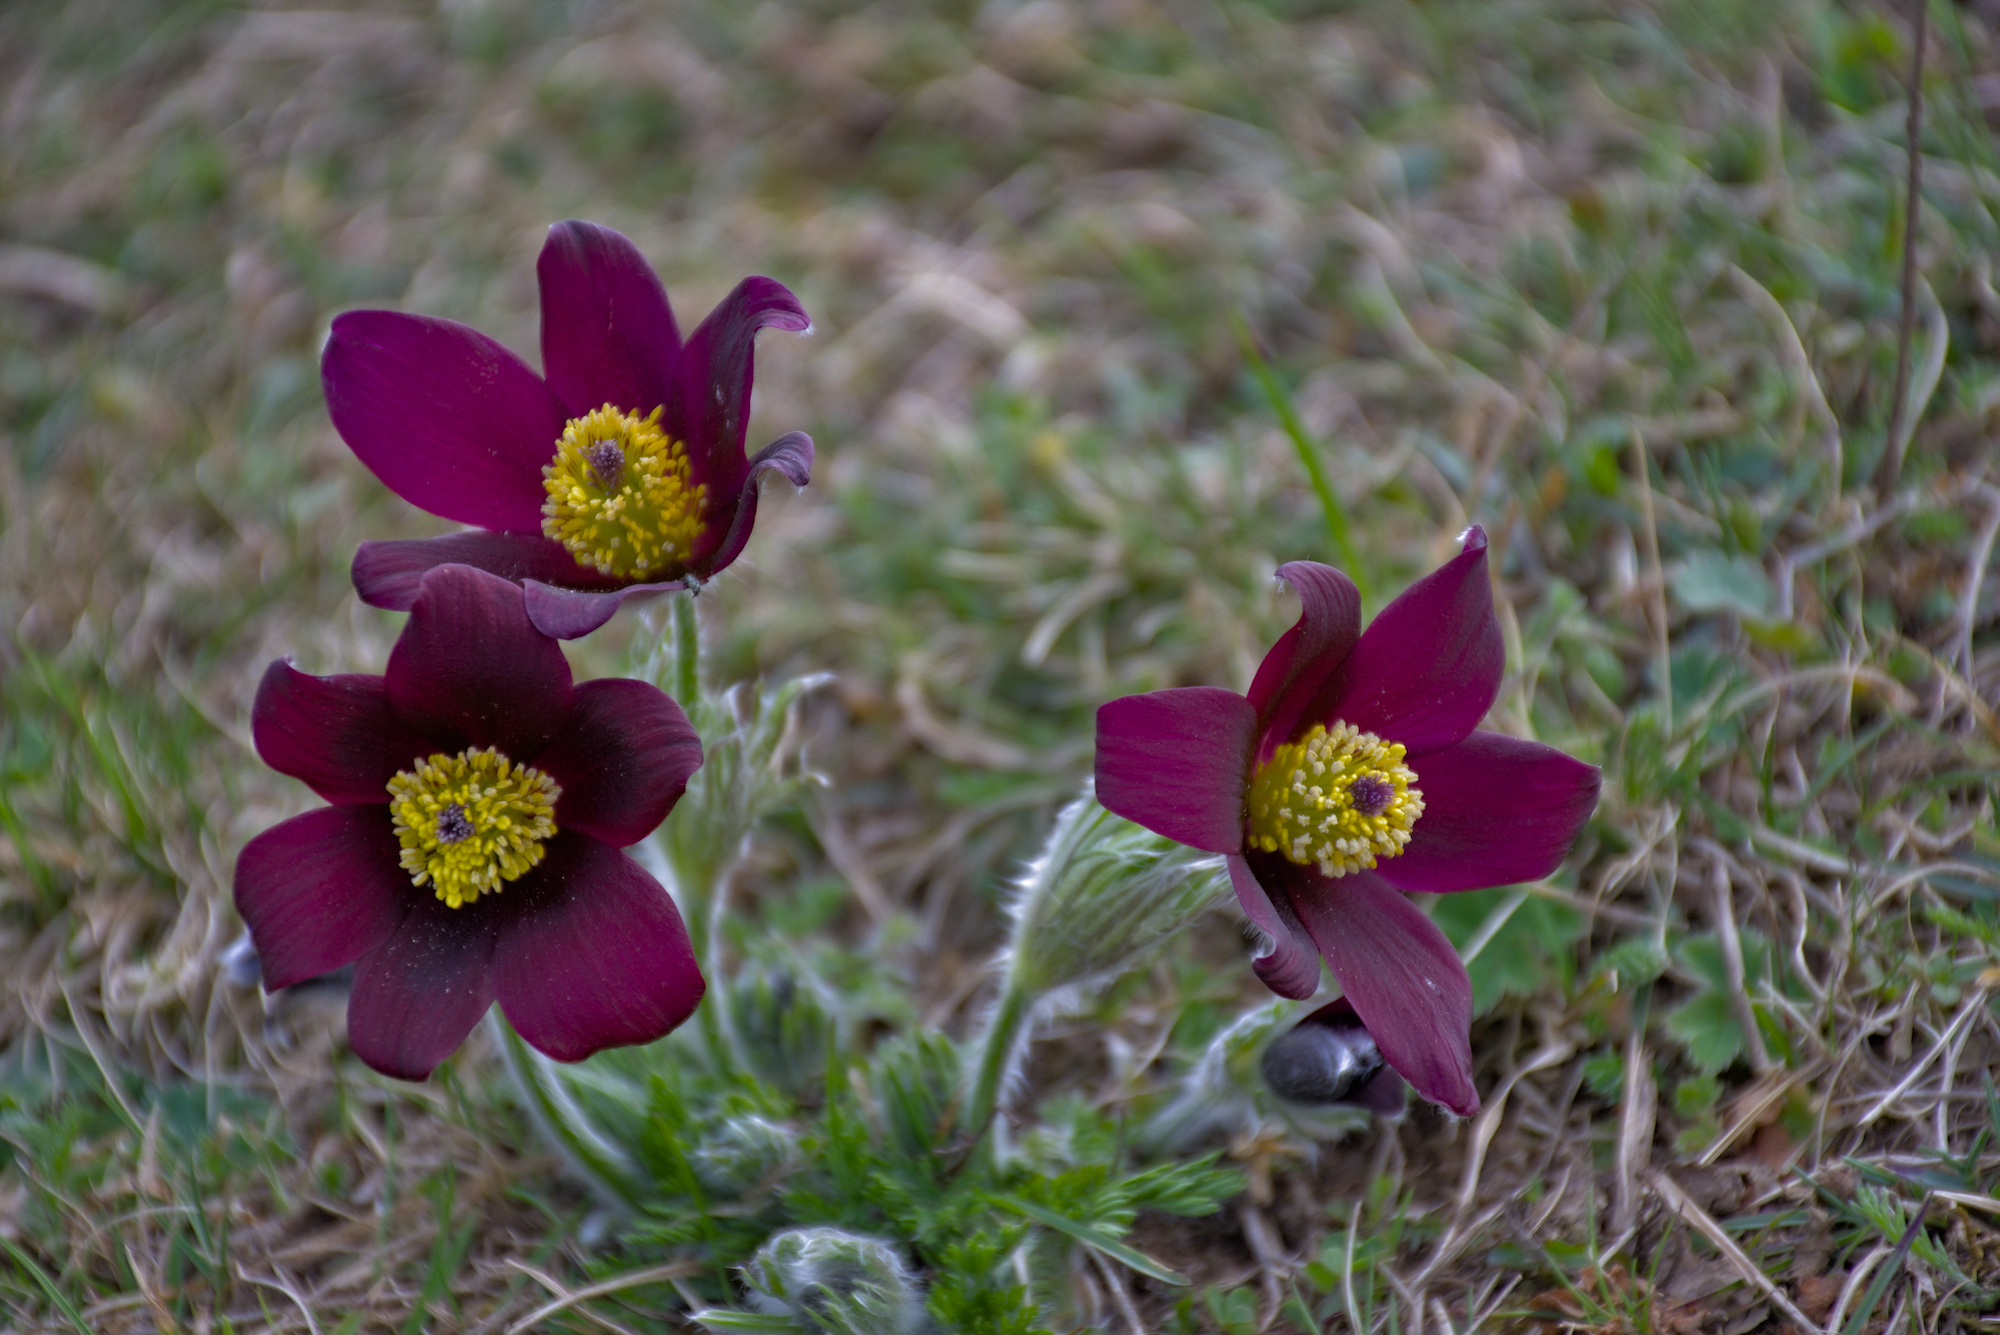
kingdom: Plantae
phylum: Tracheophyta
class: Magnoliopsida
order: Ranunculales
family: Ranunculaceae
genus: Pulsatilla
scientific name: Pulsatilla rubra
